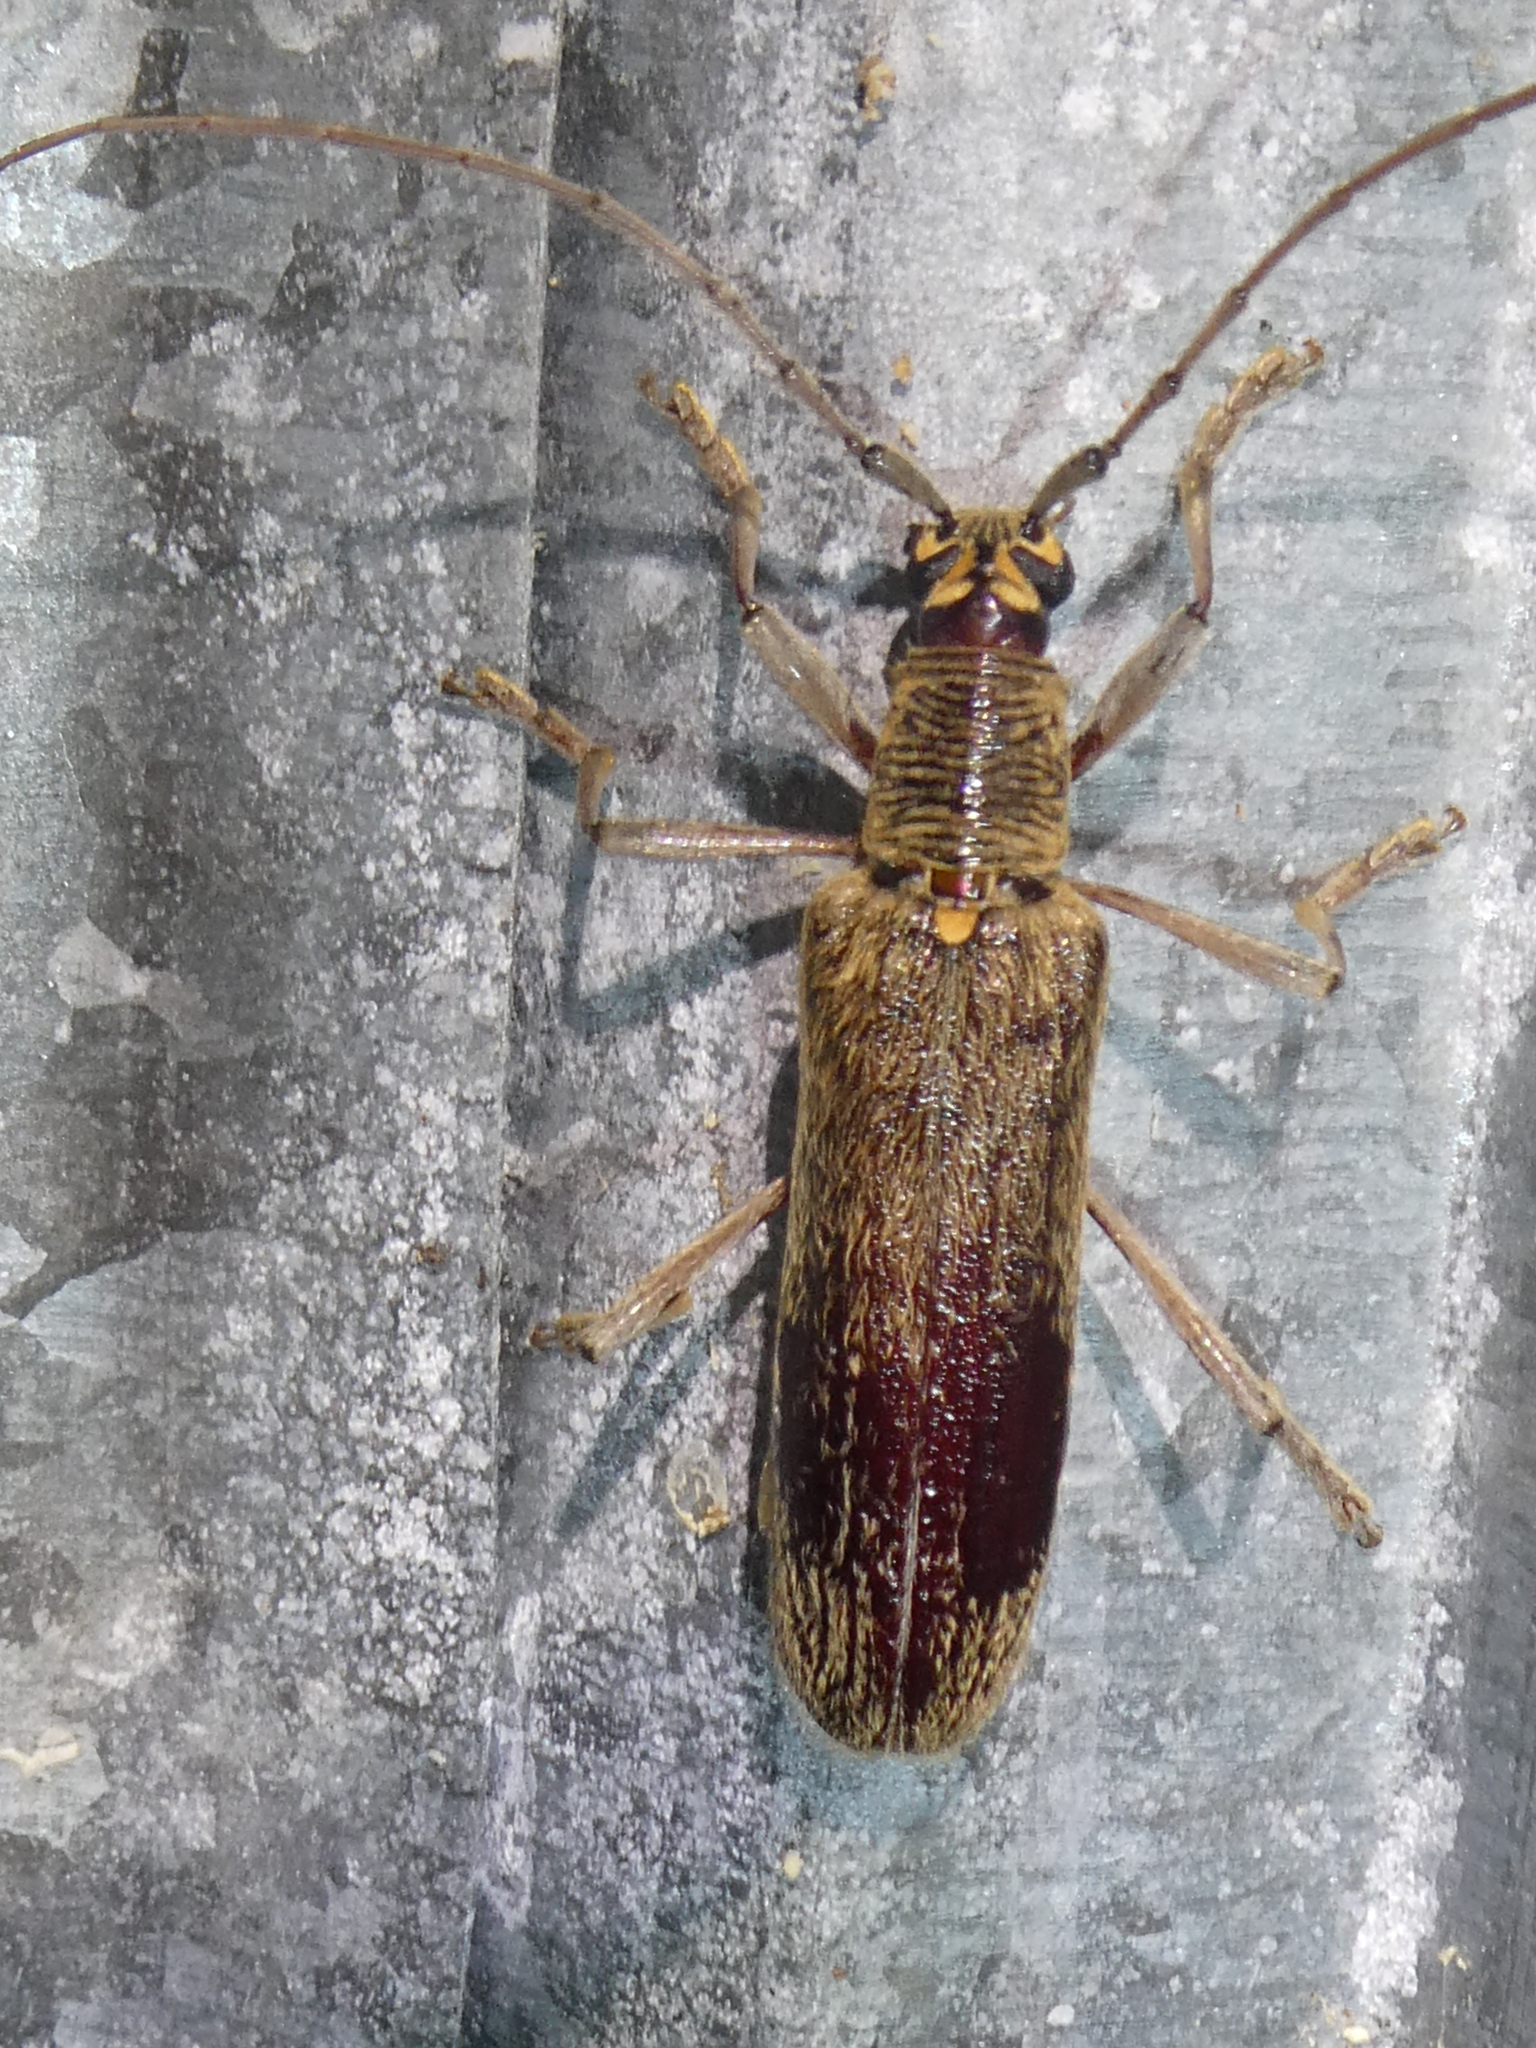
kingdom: Animalia
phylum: Arthropoda
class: Insecta
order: Coleoptera
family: Cerambycidae
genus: Oemona
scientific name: Oemona hirta
